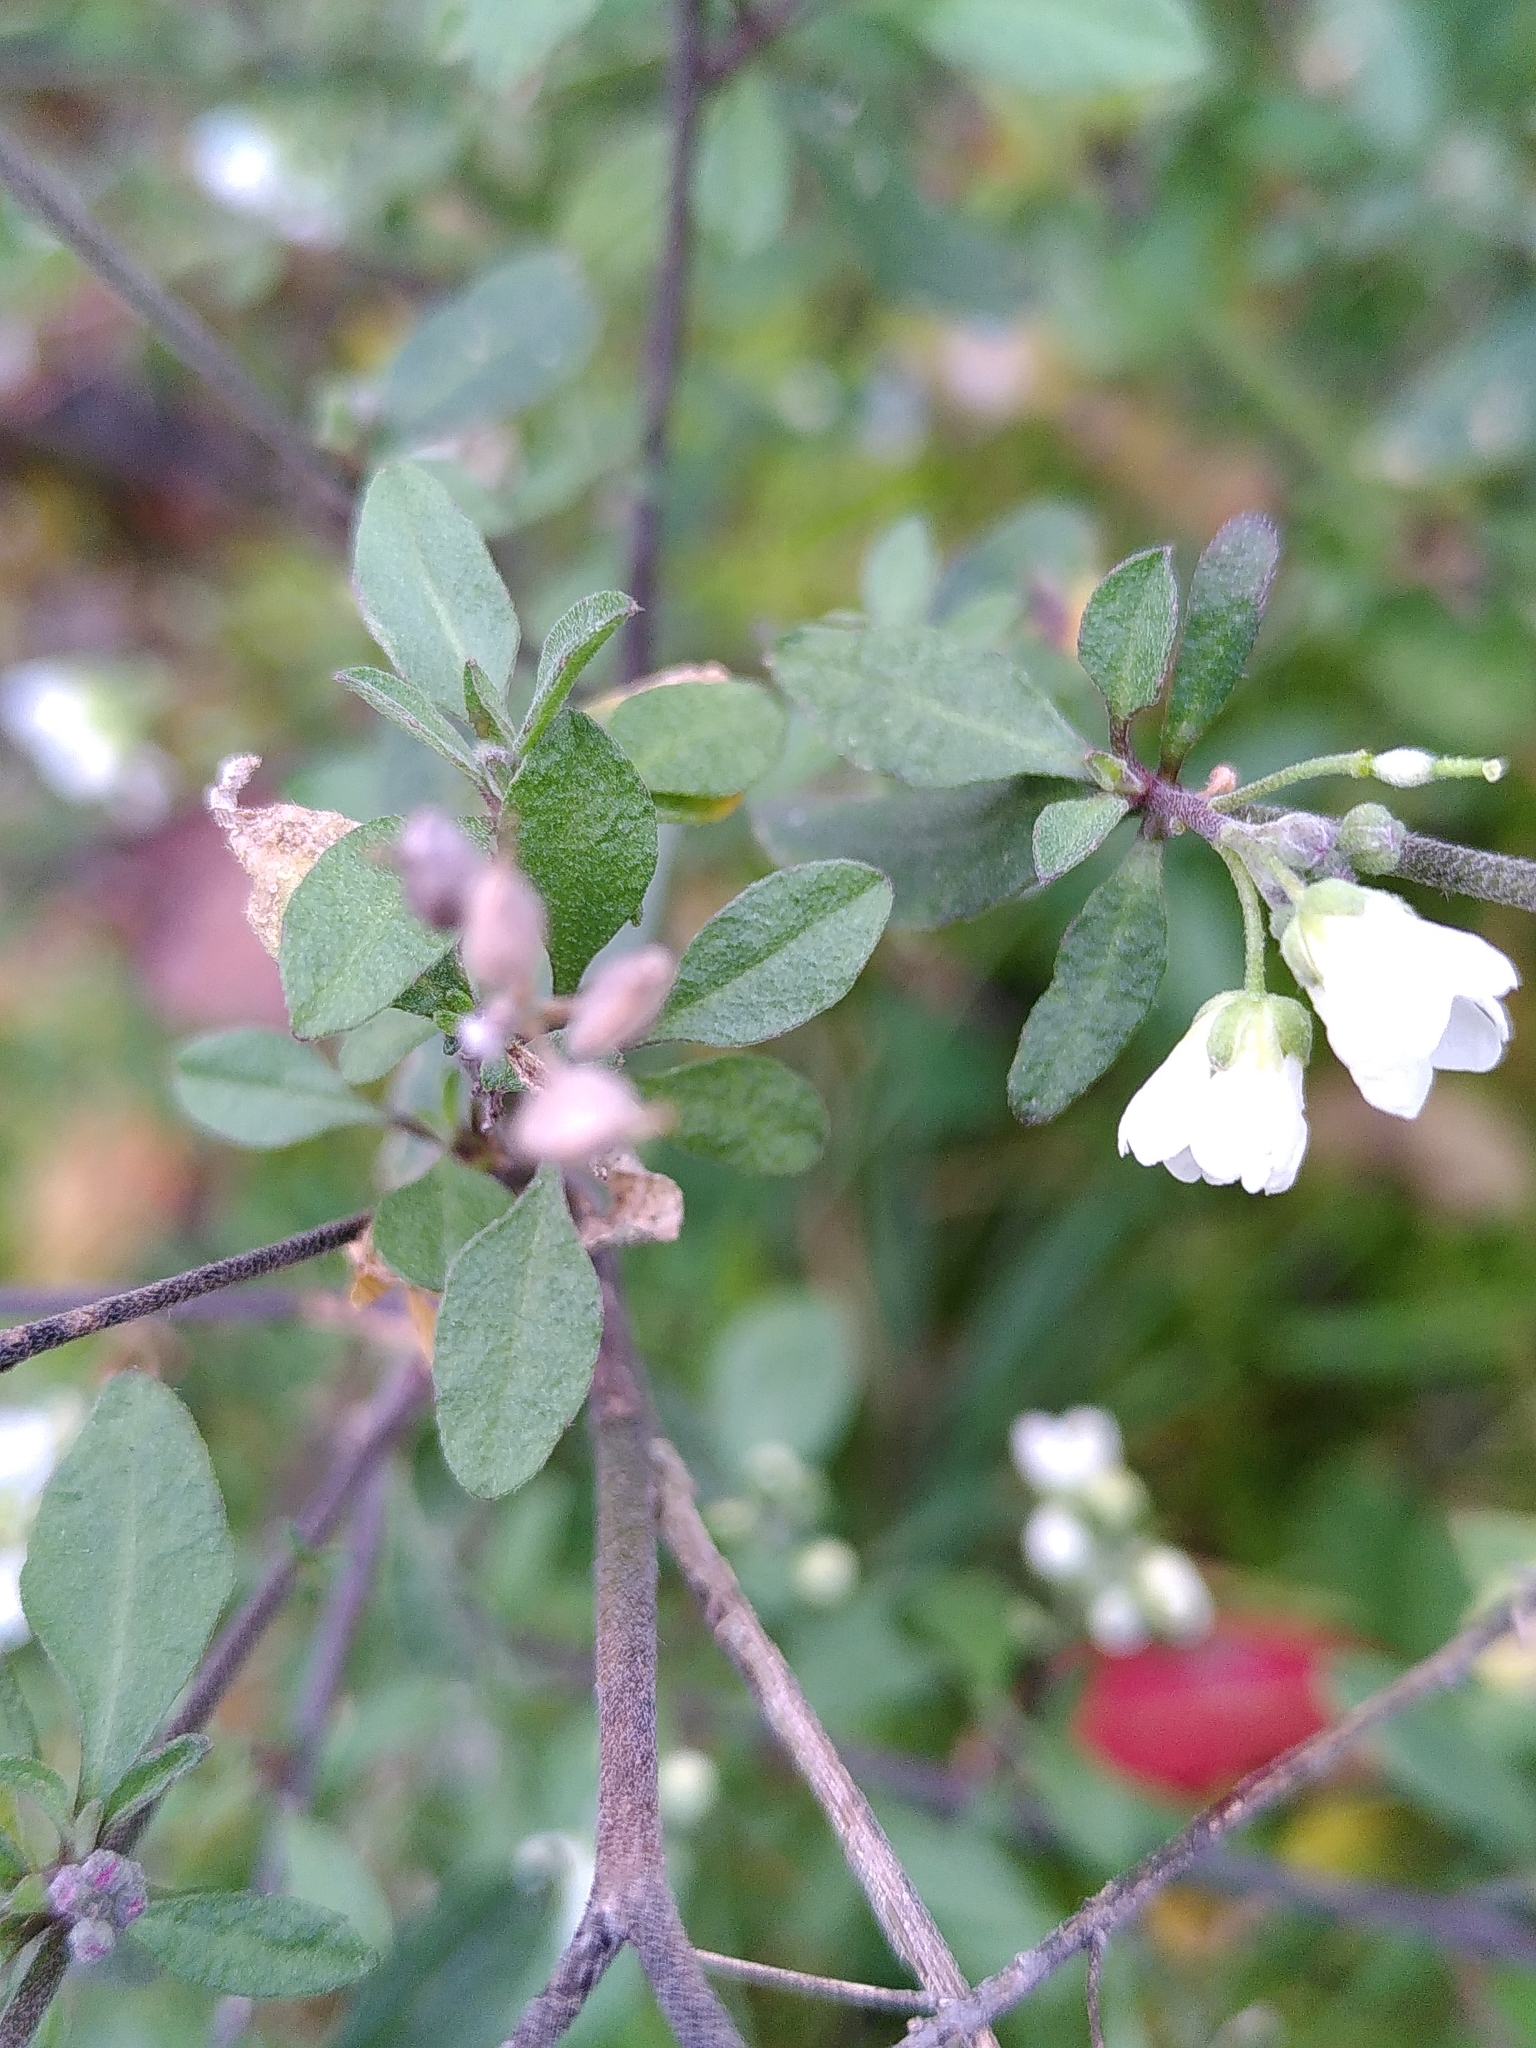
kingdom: Plantae
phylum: Tracheophyta
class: Magnoliopsida
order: Brassicales
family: Brassicaceae
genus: Berteroa
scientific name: Berteroa incana
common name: Hoary alison
